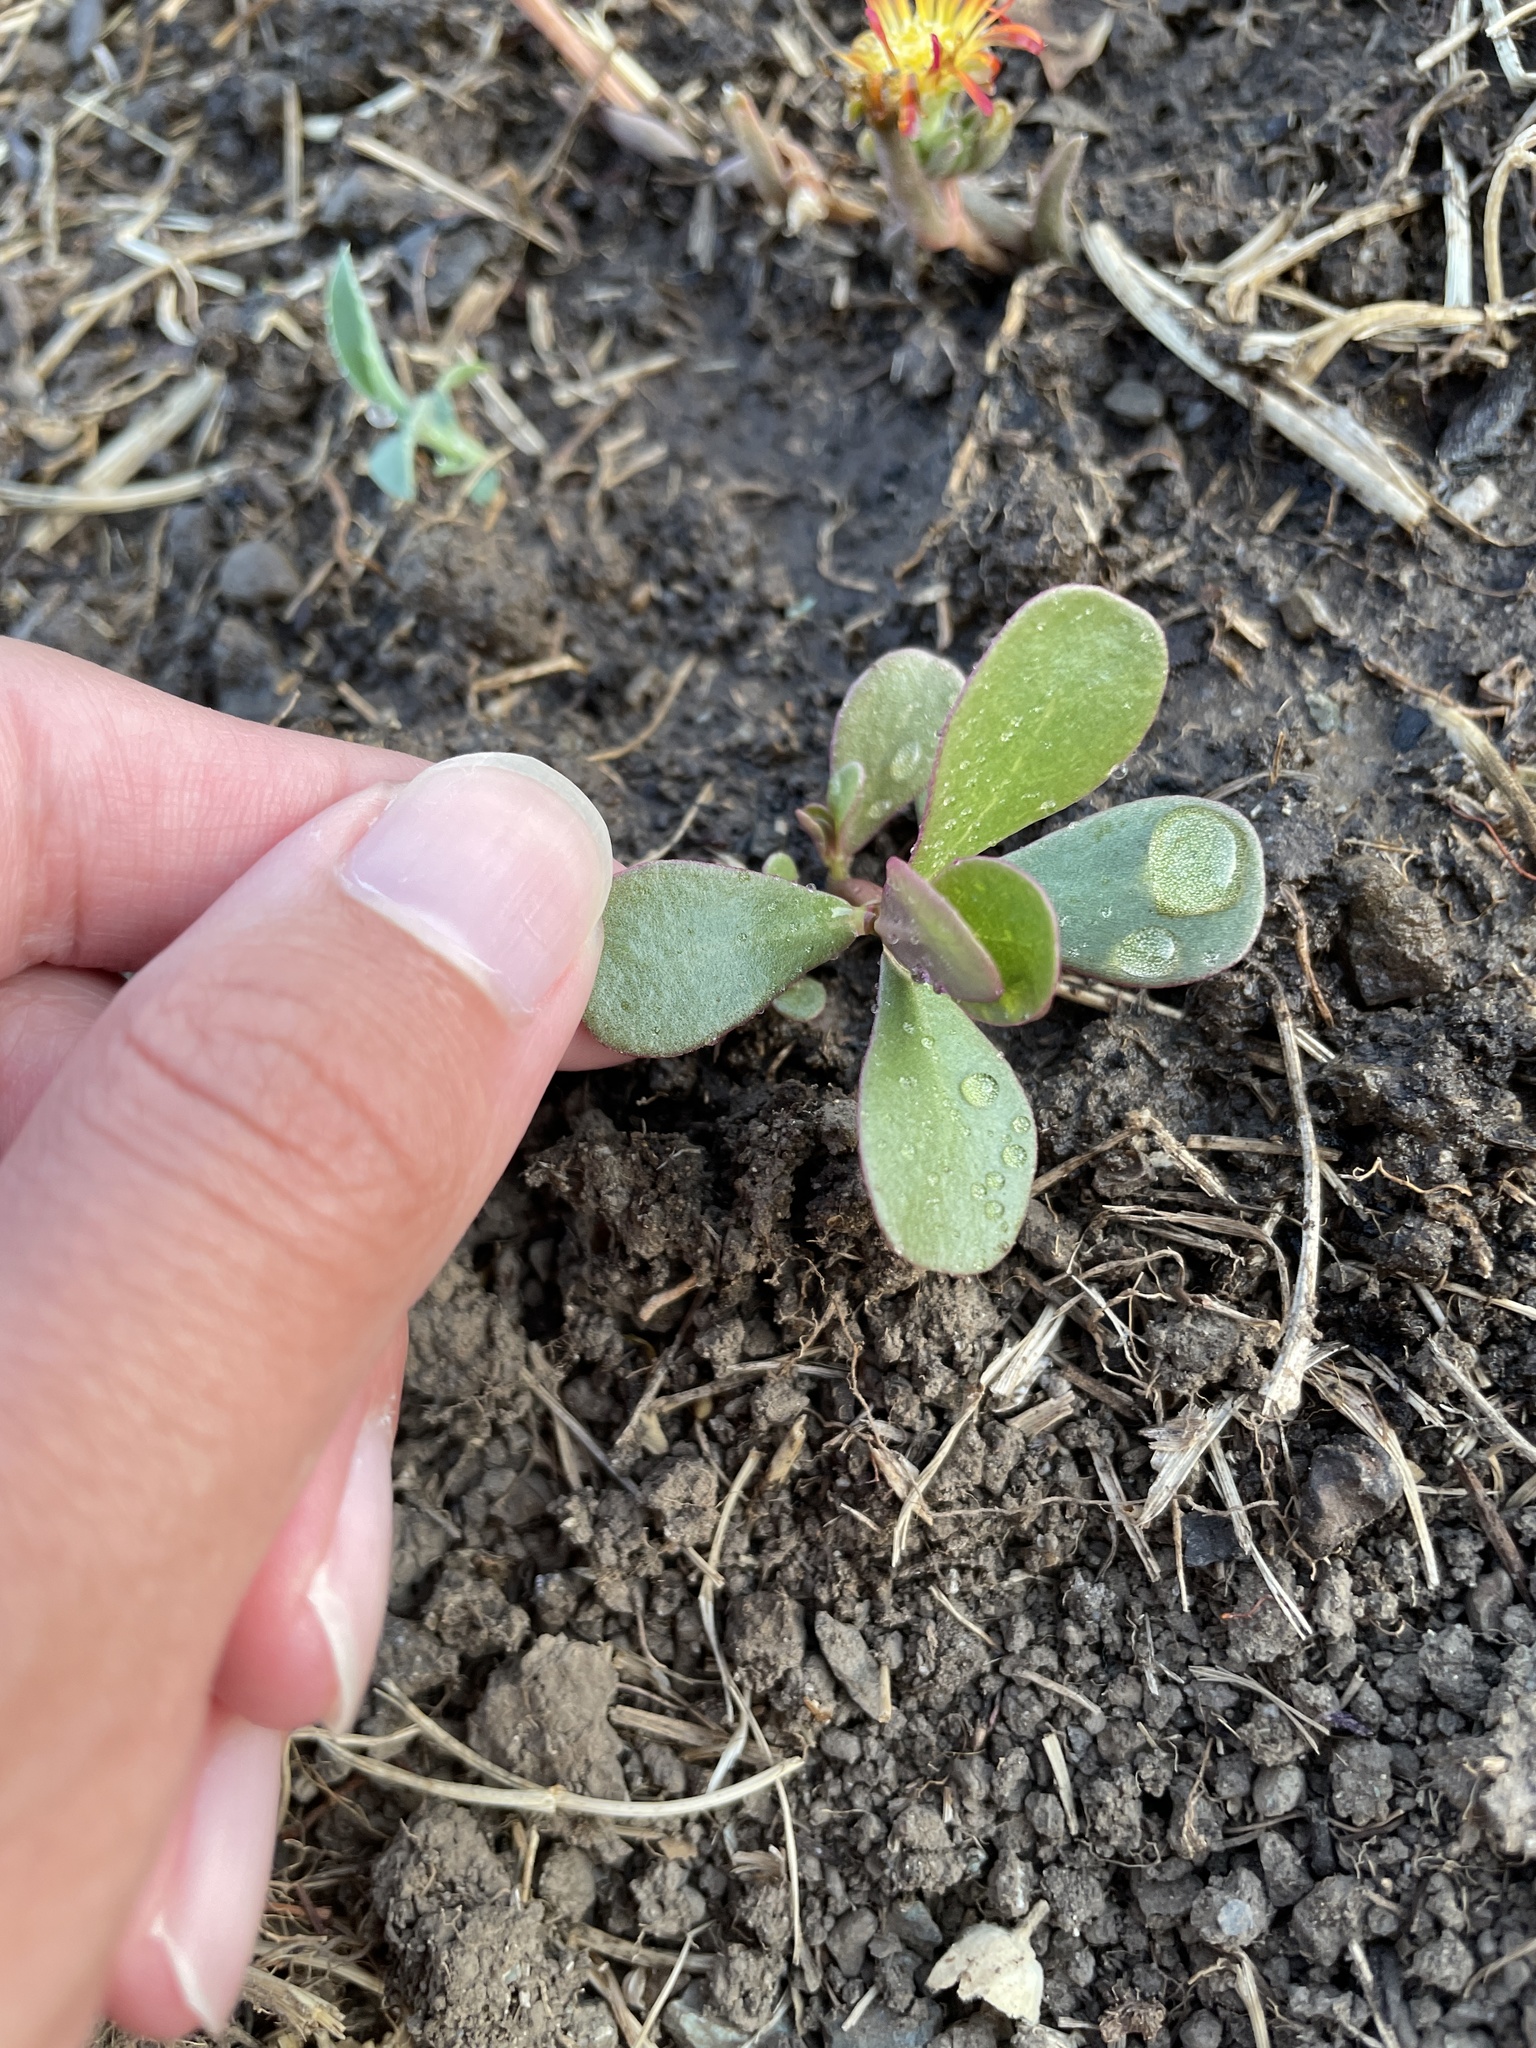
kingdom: Plantae
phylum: Tracheophyta
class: Magnoliopsida
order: Caryophyllales
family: Portulacaceae
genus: Portulaca
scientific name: Portulaca oleracea
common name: Common purslane
